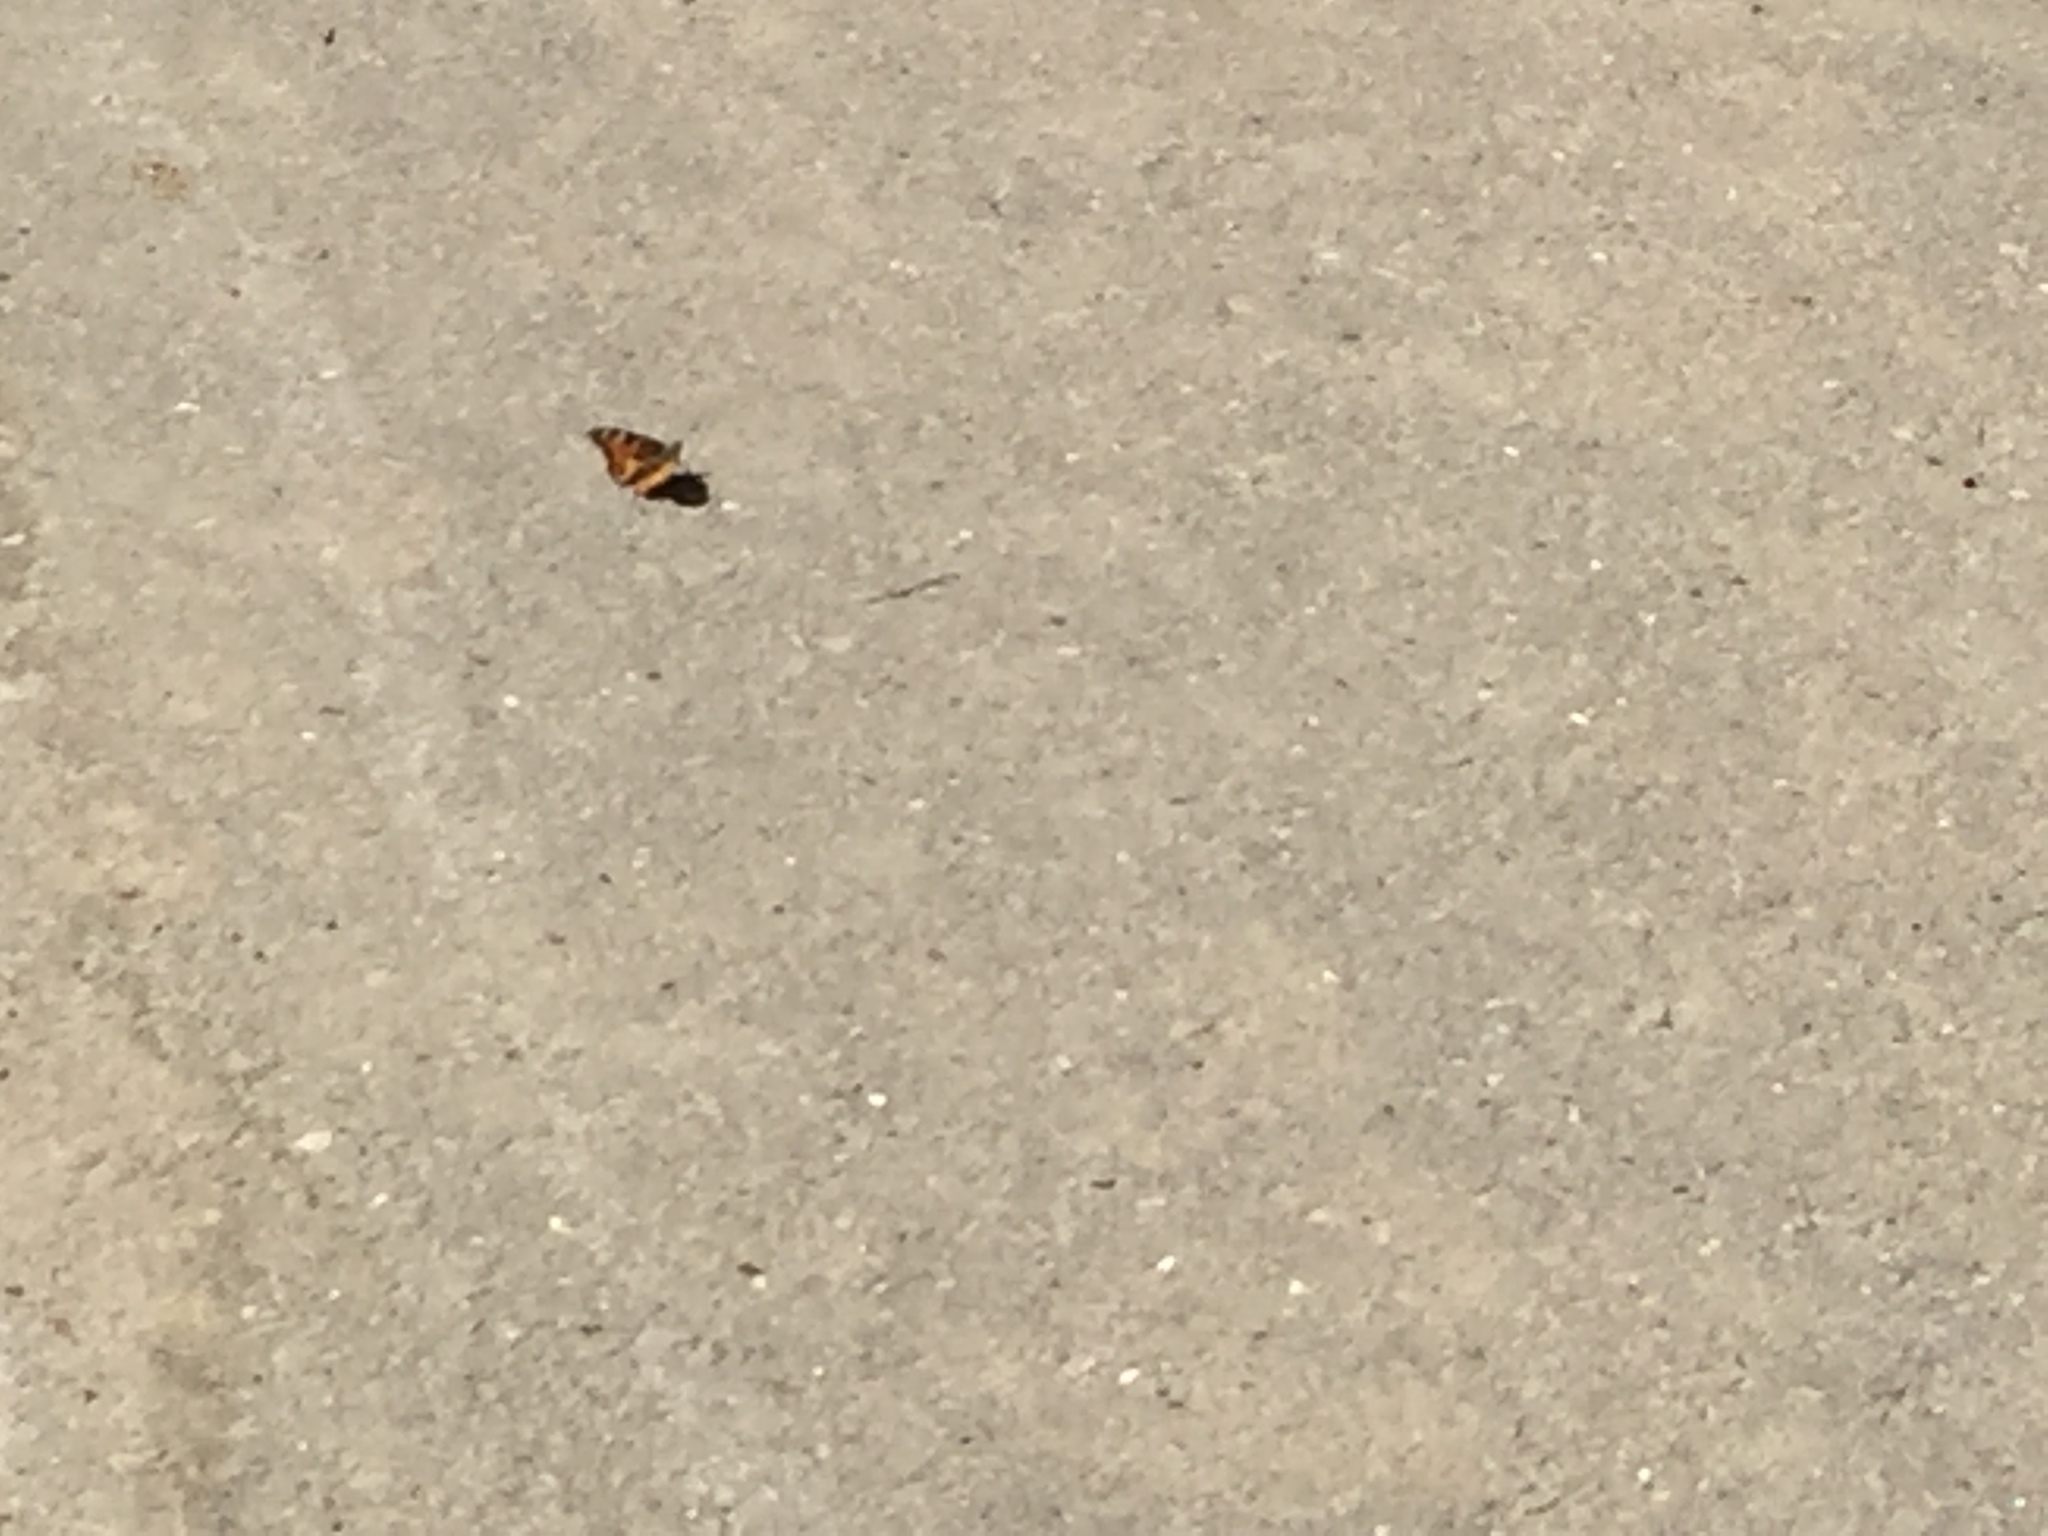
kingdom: Animalia
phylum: Arthropoda
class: Insecta
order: Lepidoptera
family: Nymphalidae
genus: Nymphalis
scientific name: Nymphalis californica
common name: California tortoiseshell
